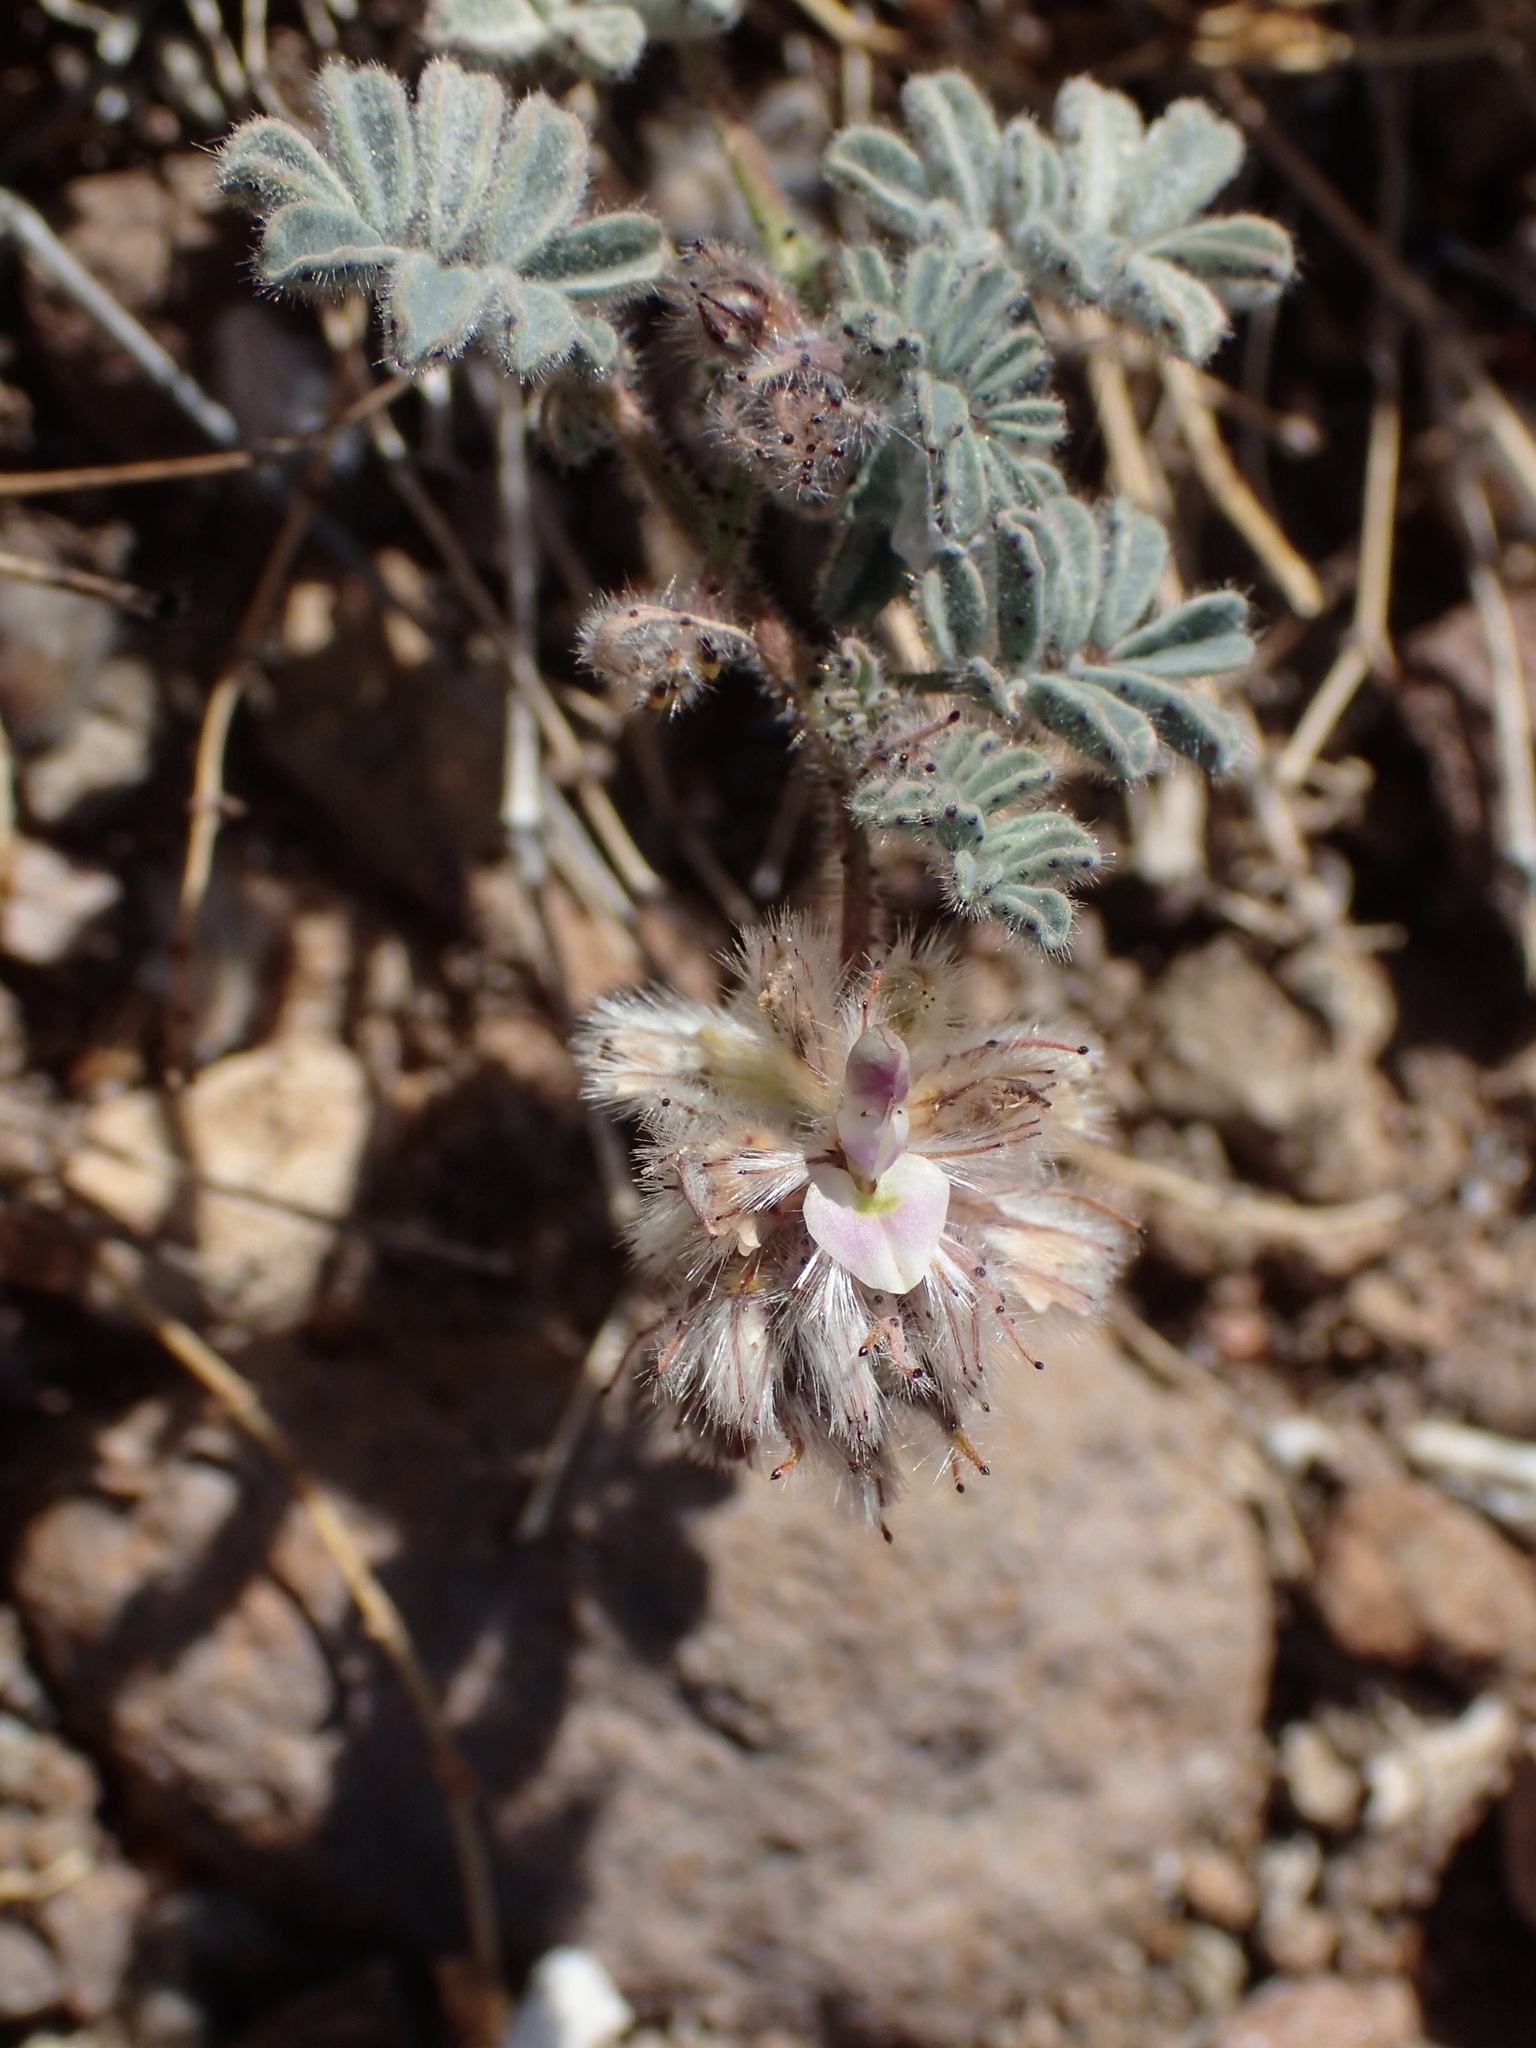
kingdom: Plantae
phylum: Tracheophyta
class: Magnoliopsida
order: Fabales
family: Fabaceae
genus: Dalea
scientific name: Dalea mollis
